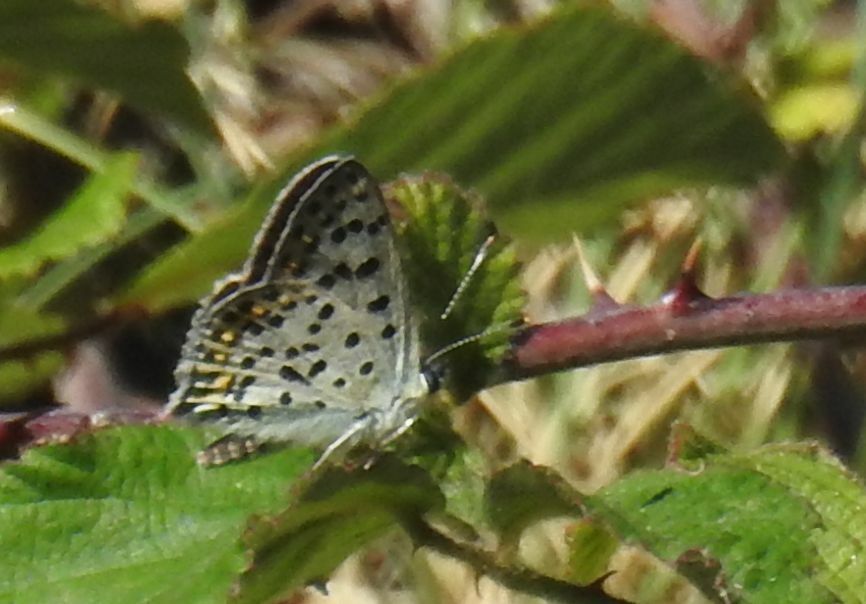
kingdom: Animalia
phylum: Arthropoda
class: Insecta
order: Lepidoptera
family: Lycaenidae
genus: Loweia
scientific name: Loweia tityrus
